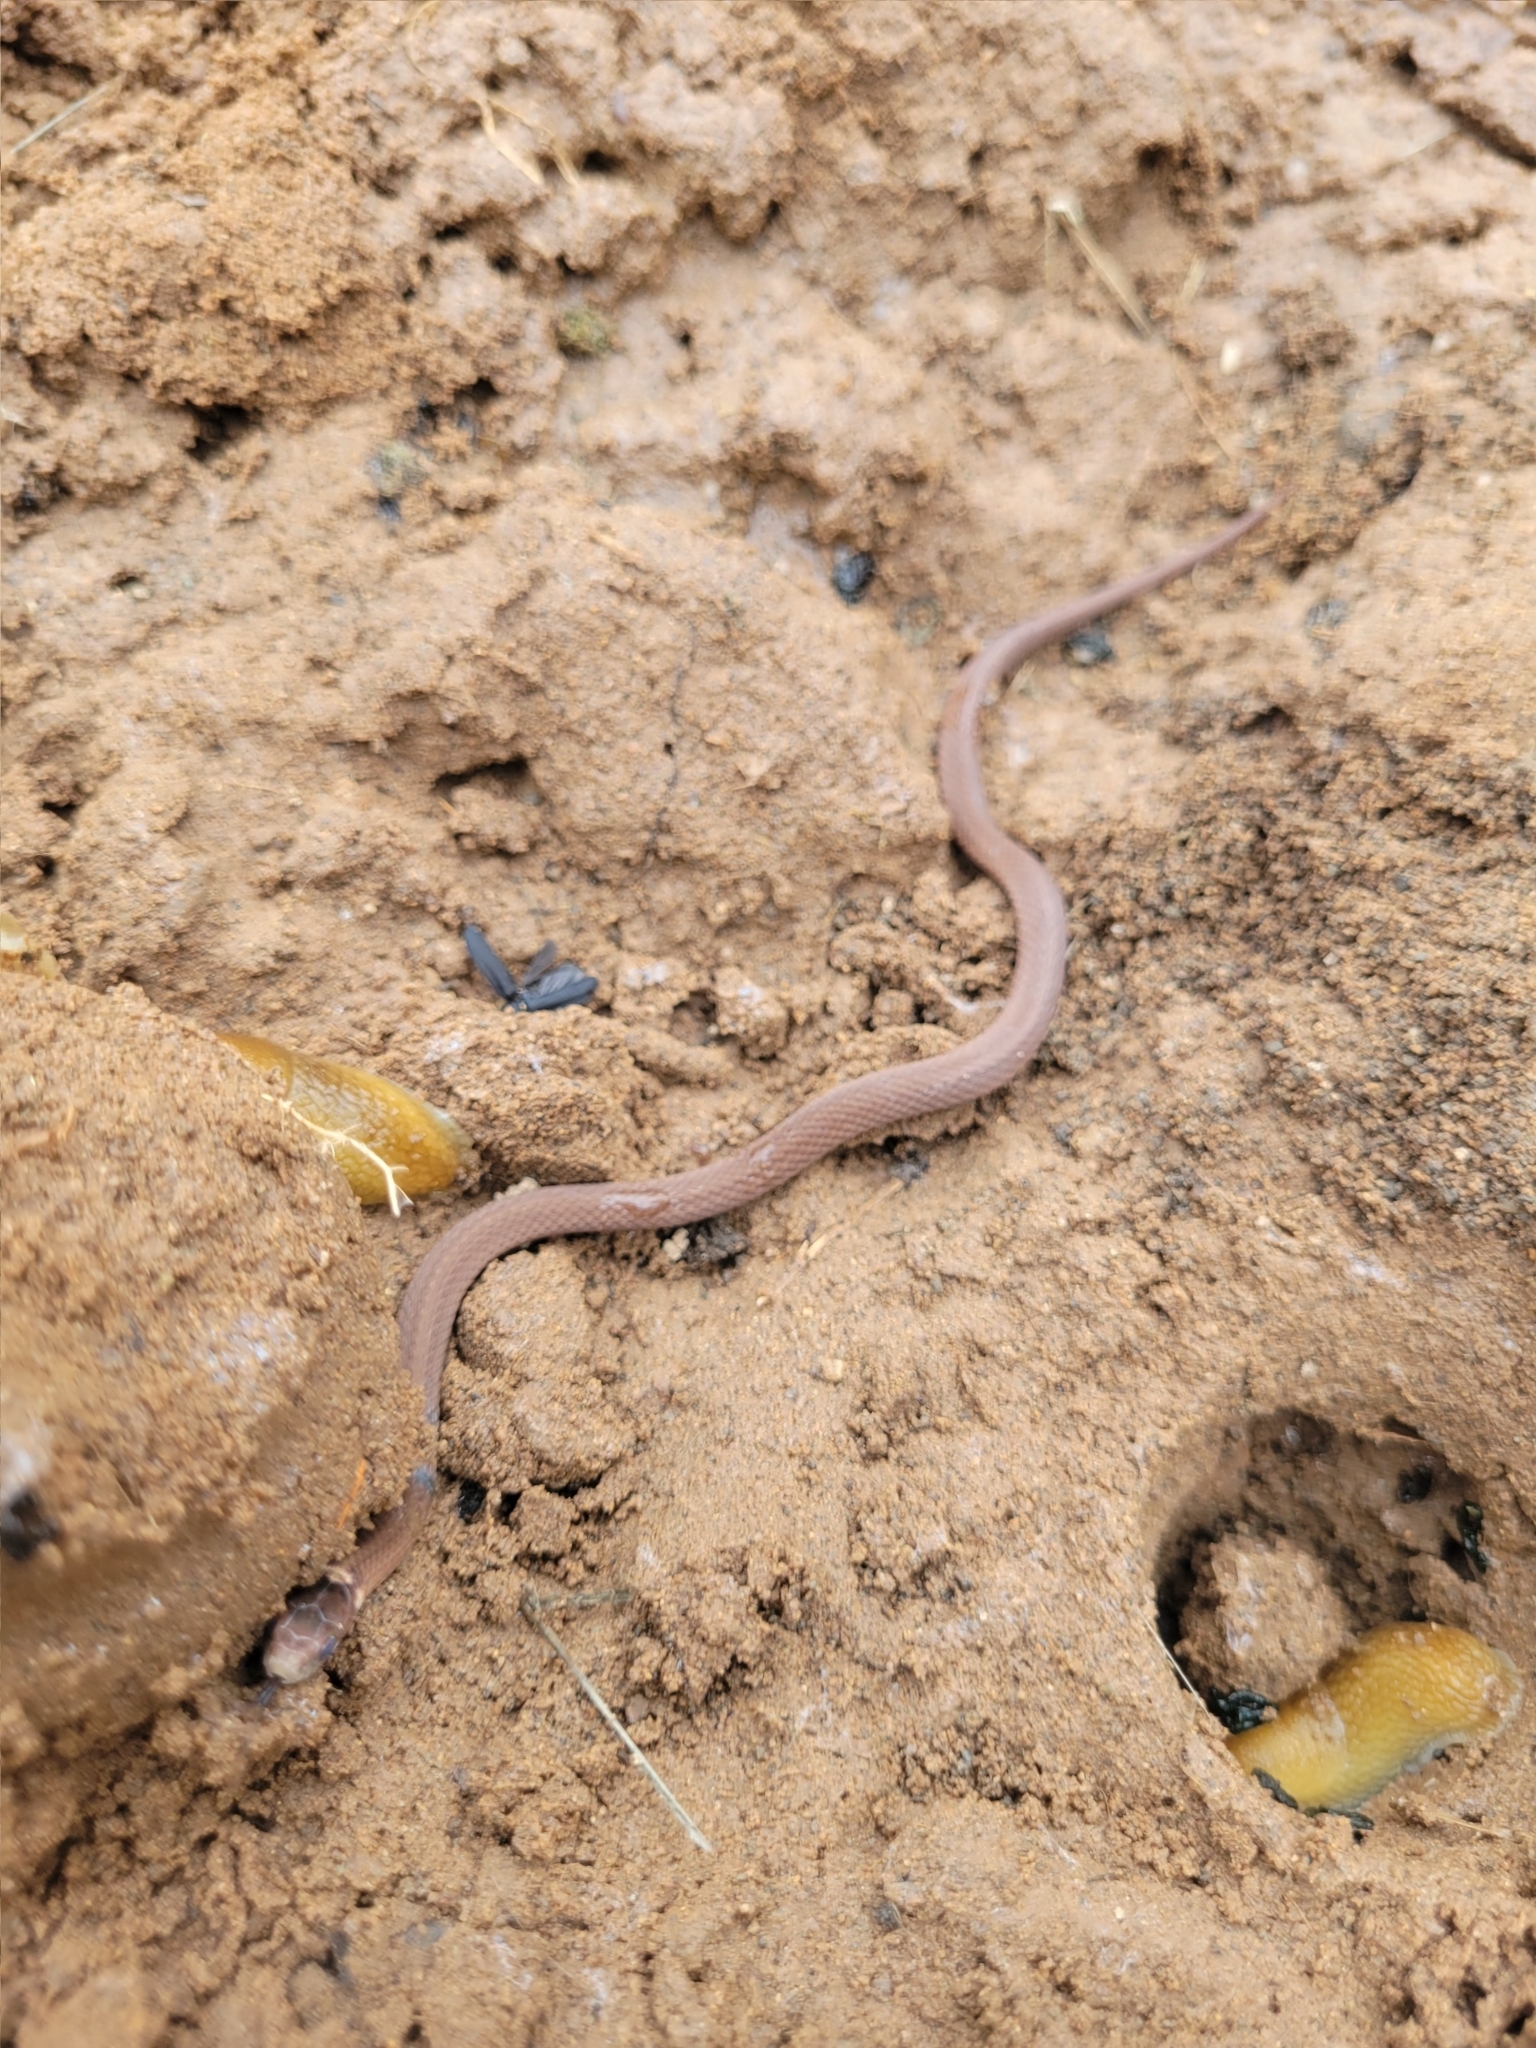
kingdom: Animalia
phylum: Chordata
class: Squamata
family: Colubridae
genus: Storeria
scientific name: Storeria occipitomaculata
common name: Redbelly snake
